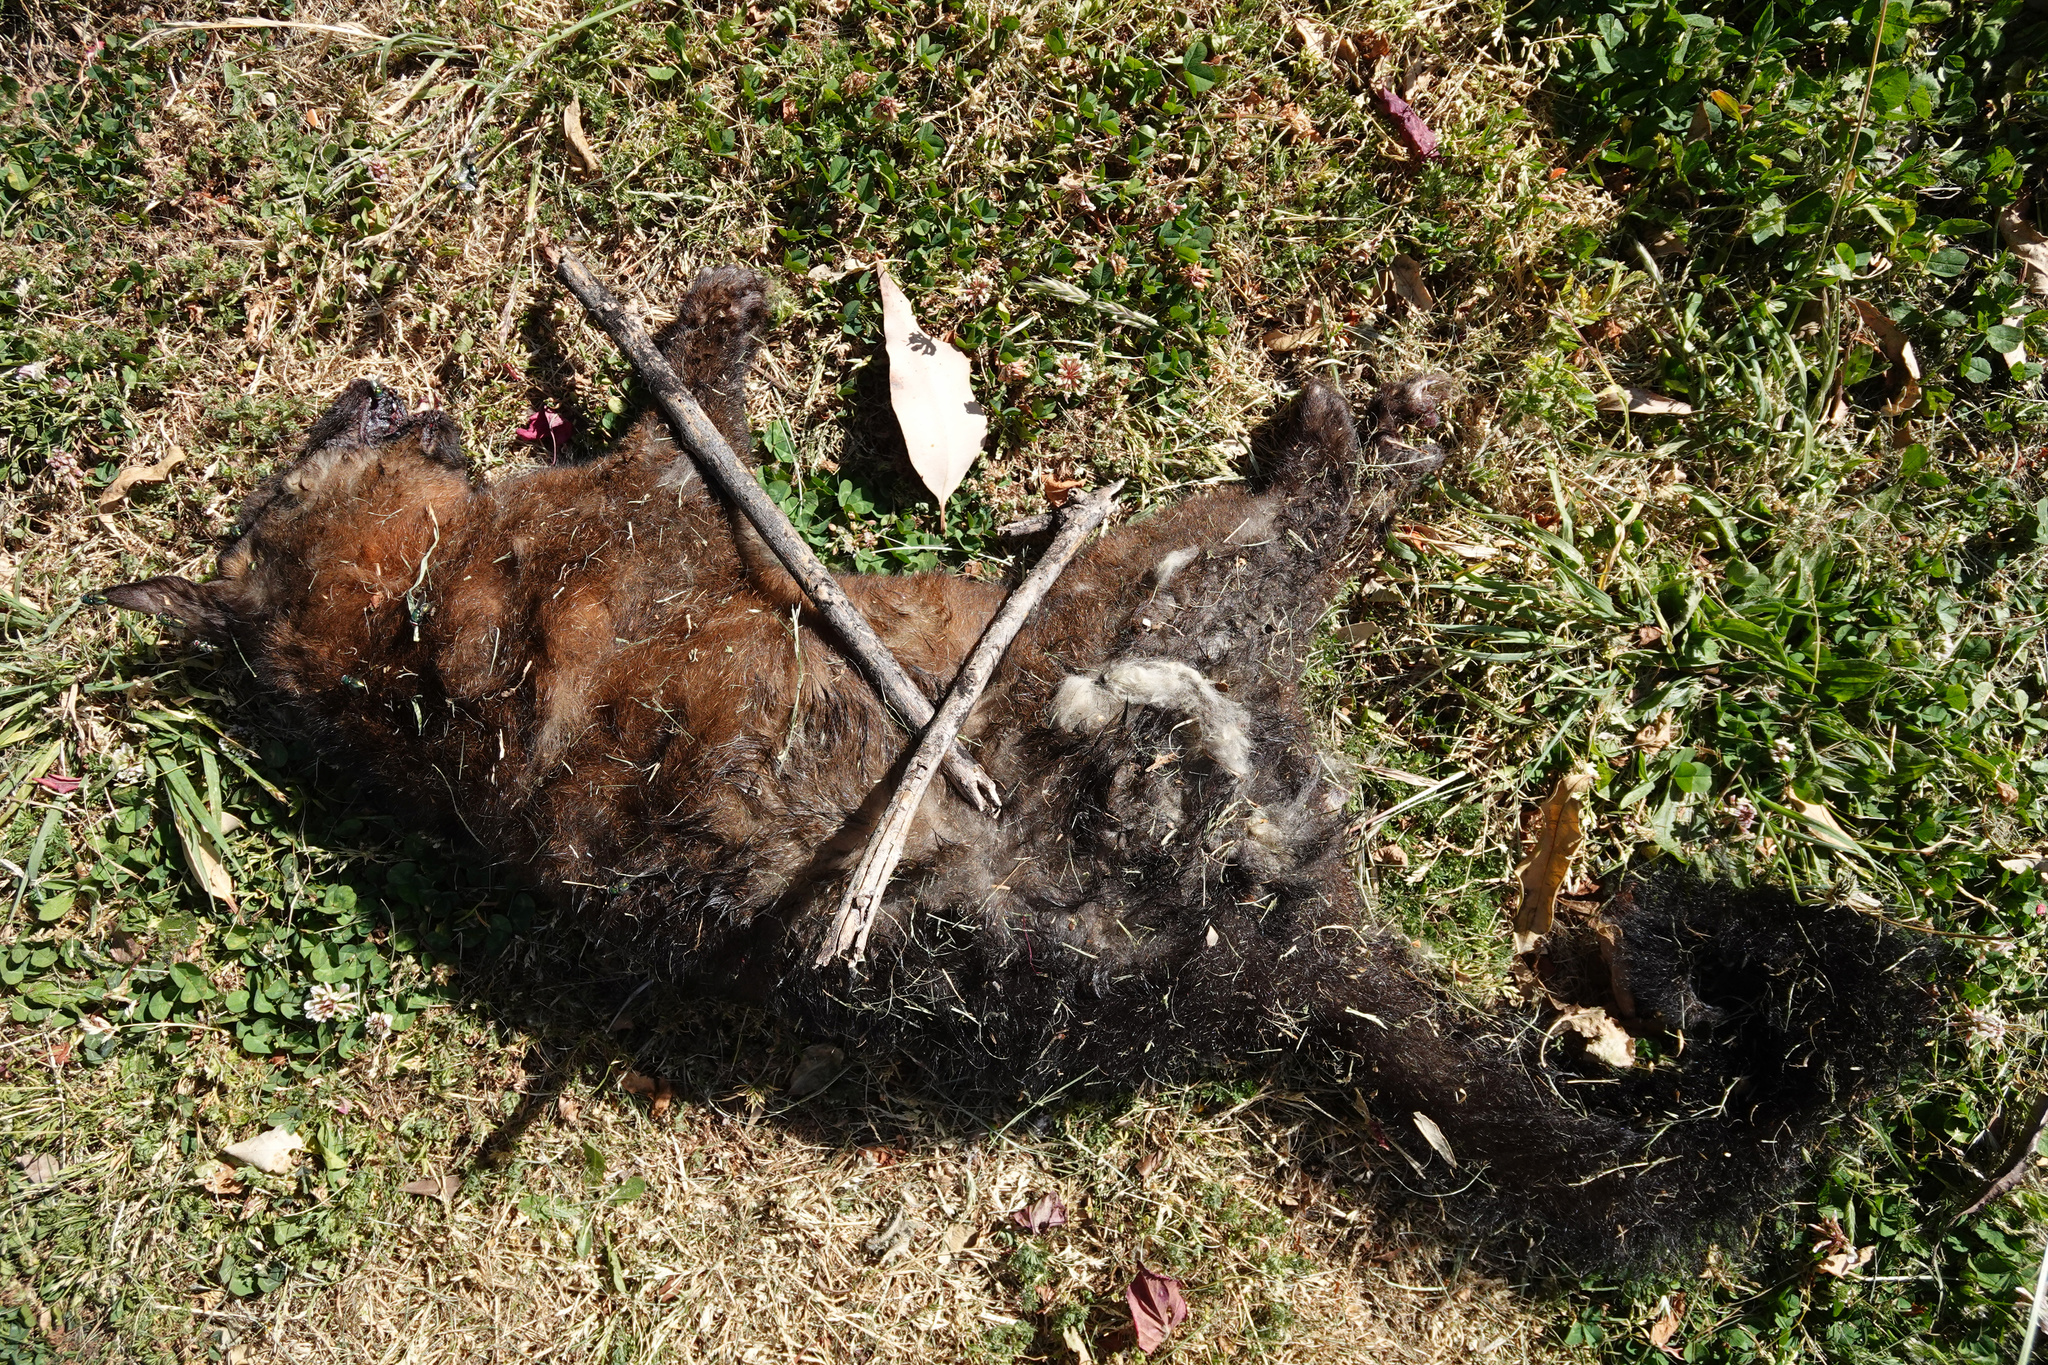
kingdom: Animalia
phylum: Chordata
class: Mammalia
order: Diprotodontia
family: Phalangeridae
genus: Trichosurus
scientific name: Trichosurus vulpecula
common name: Common brushtail
